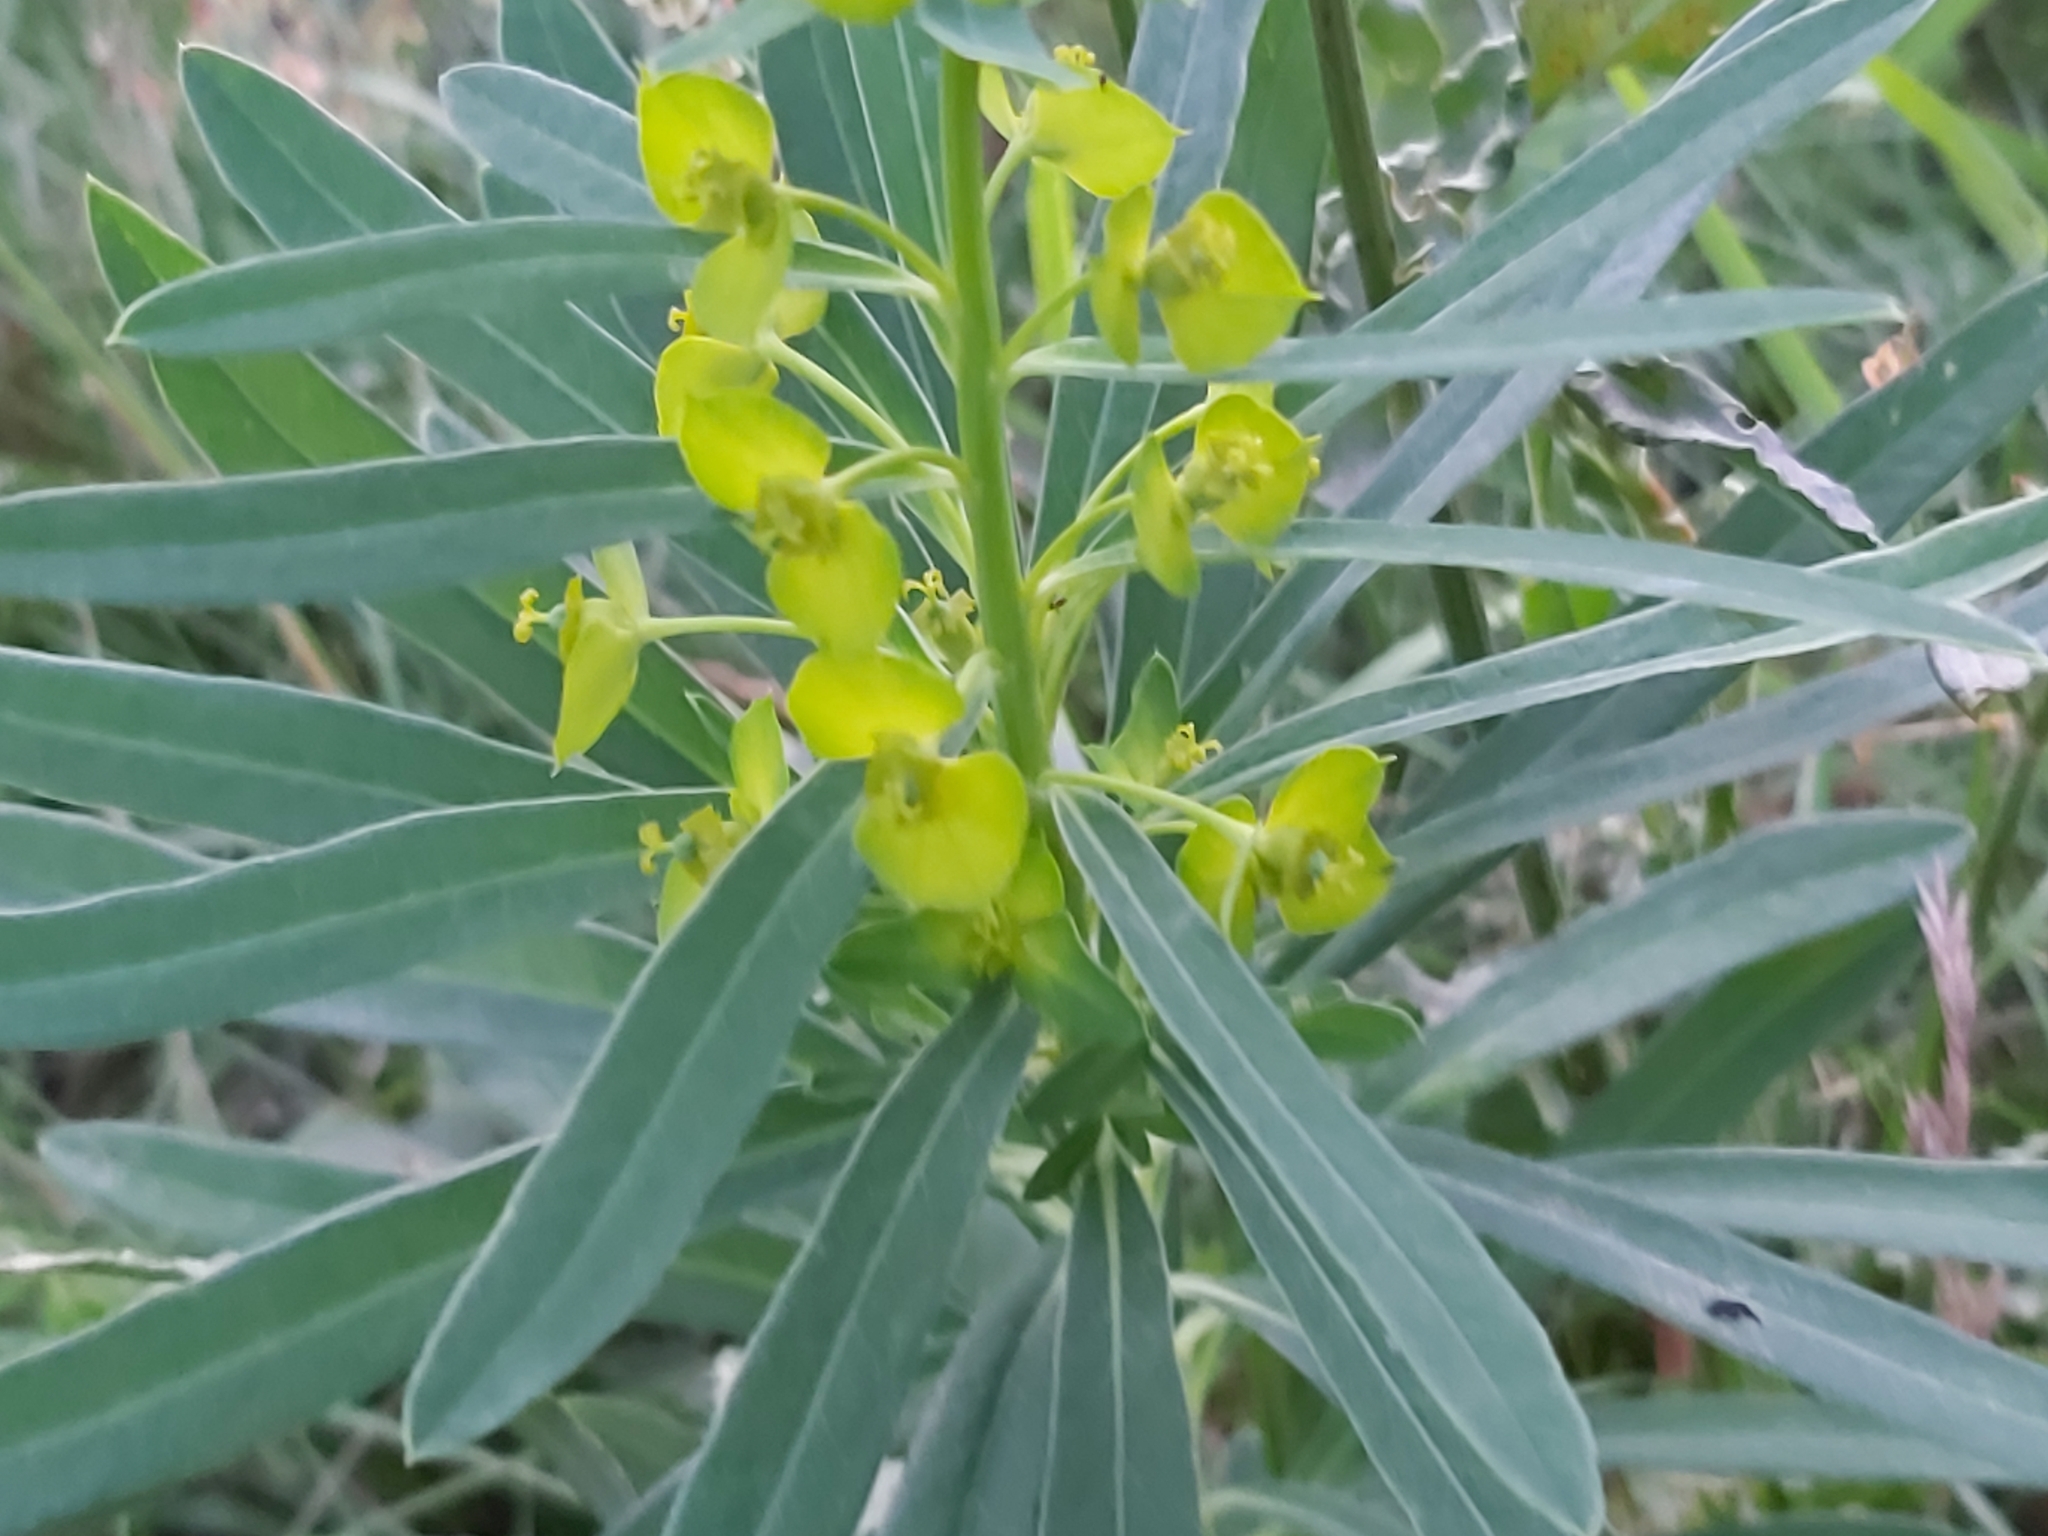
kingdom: Plantae
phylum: Tracheophyta
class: Magnoliopsida
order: Malpighiales
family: Euphorbiaceae
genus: Euphorbia
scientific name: Euphorbia esula
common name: Leafy spurge
